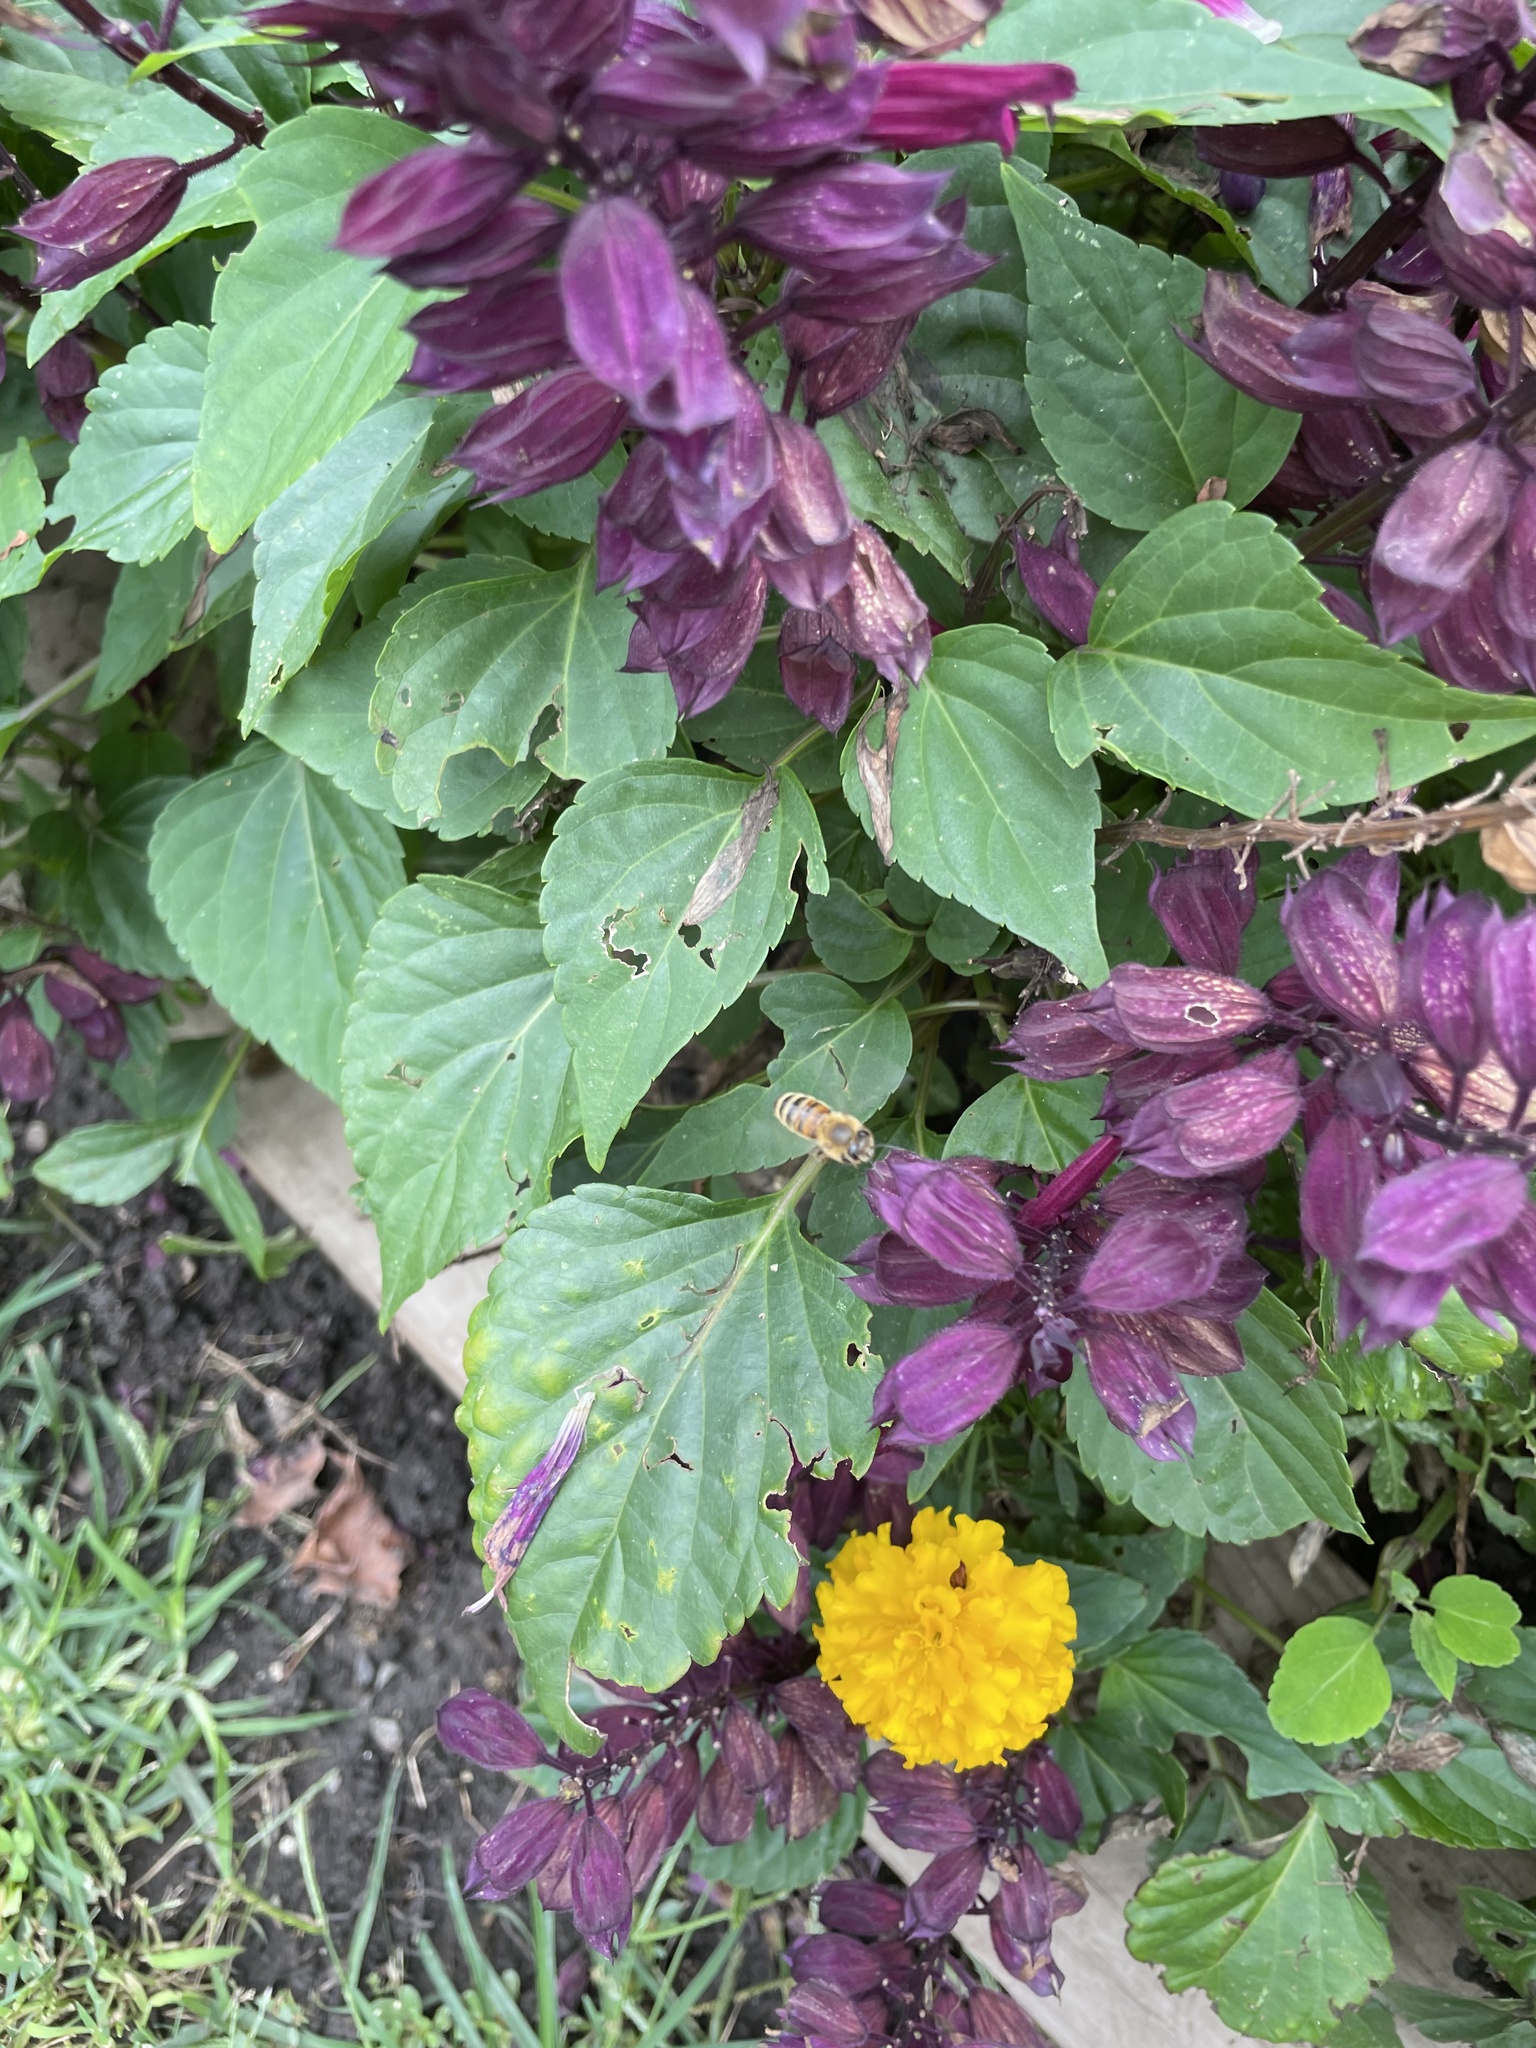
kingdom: Animalia
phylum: Arthropoda
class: Insecta
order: Hymenoptera
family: Apidae
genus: Apis
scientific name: Apis mellifera
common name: Honey bee
